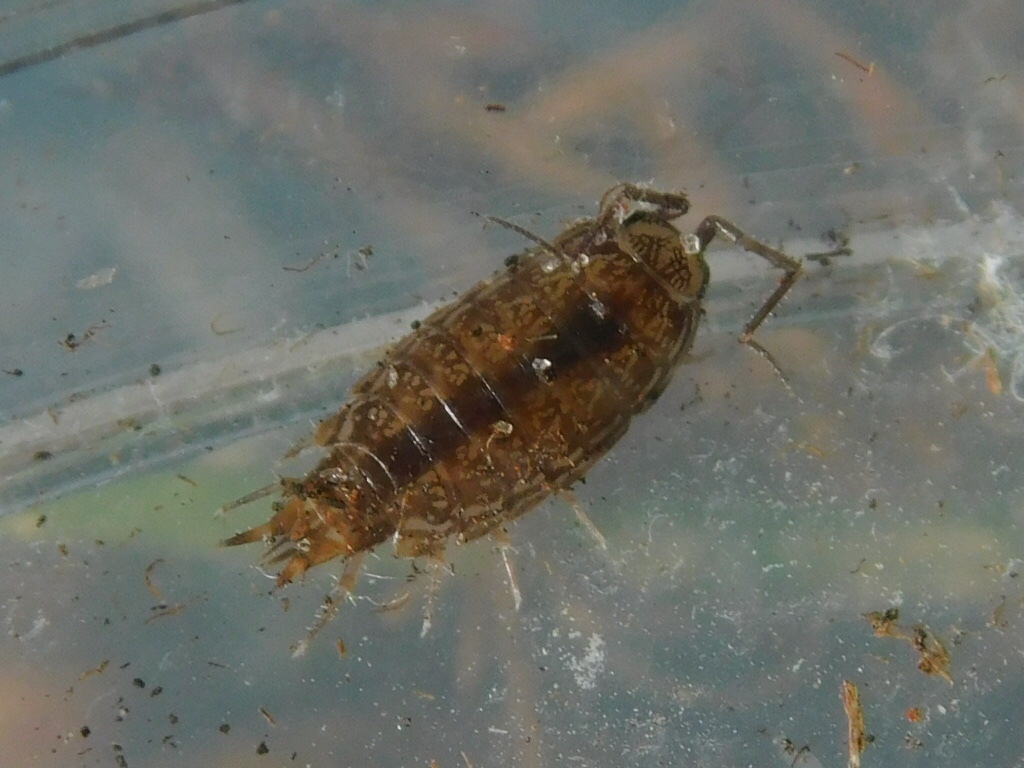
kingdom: Animalia
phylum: Arthropoda
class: Malacostraca
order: Isopoda
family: Philosciidae
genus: Atlantoscia
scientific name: Atlantoscia floridana
